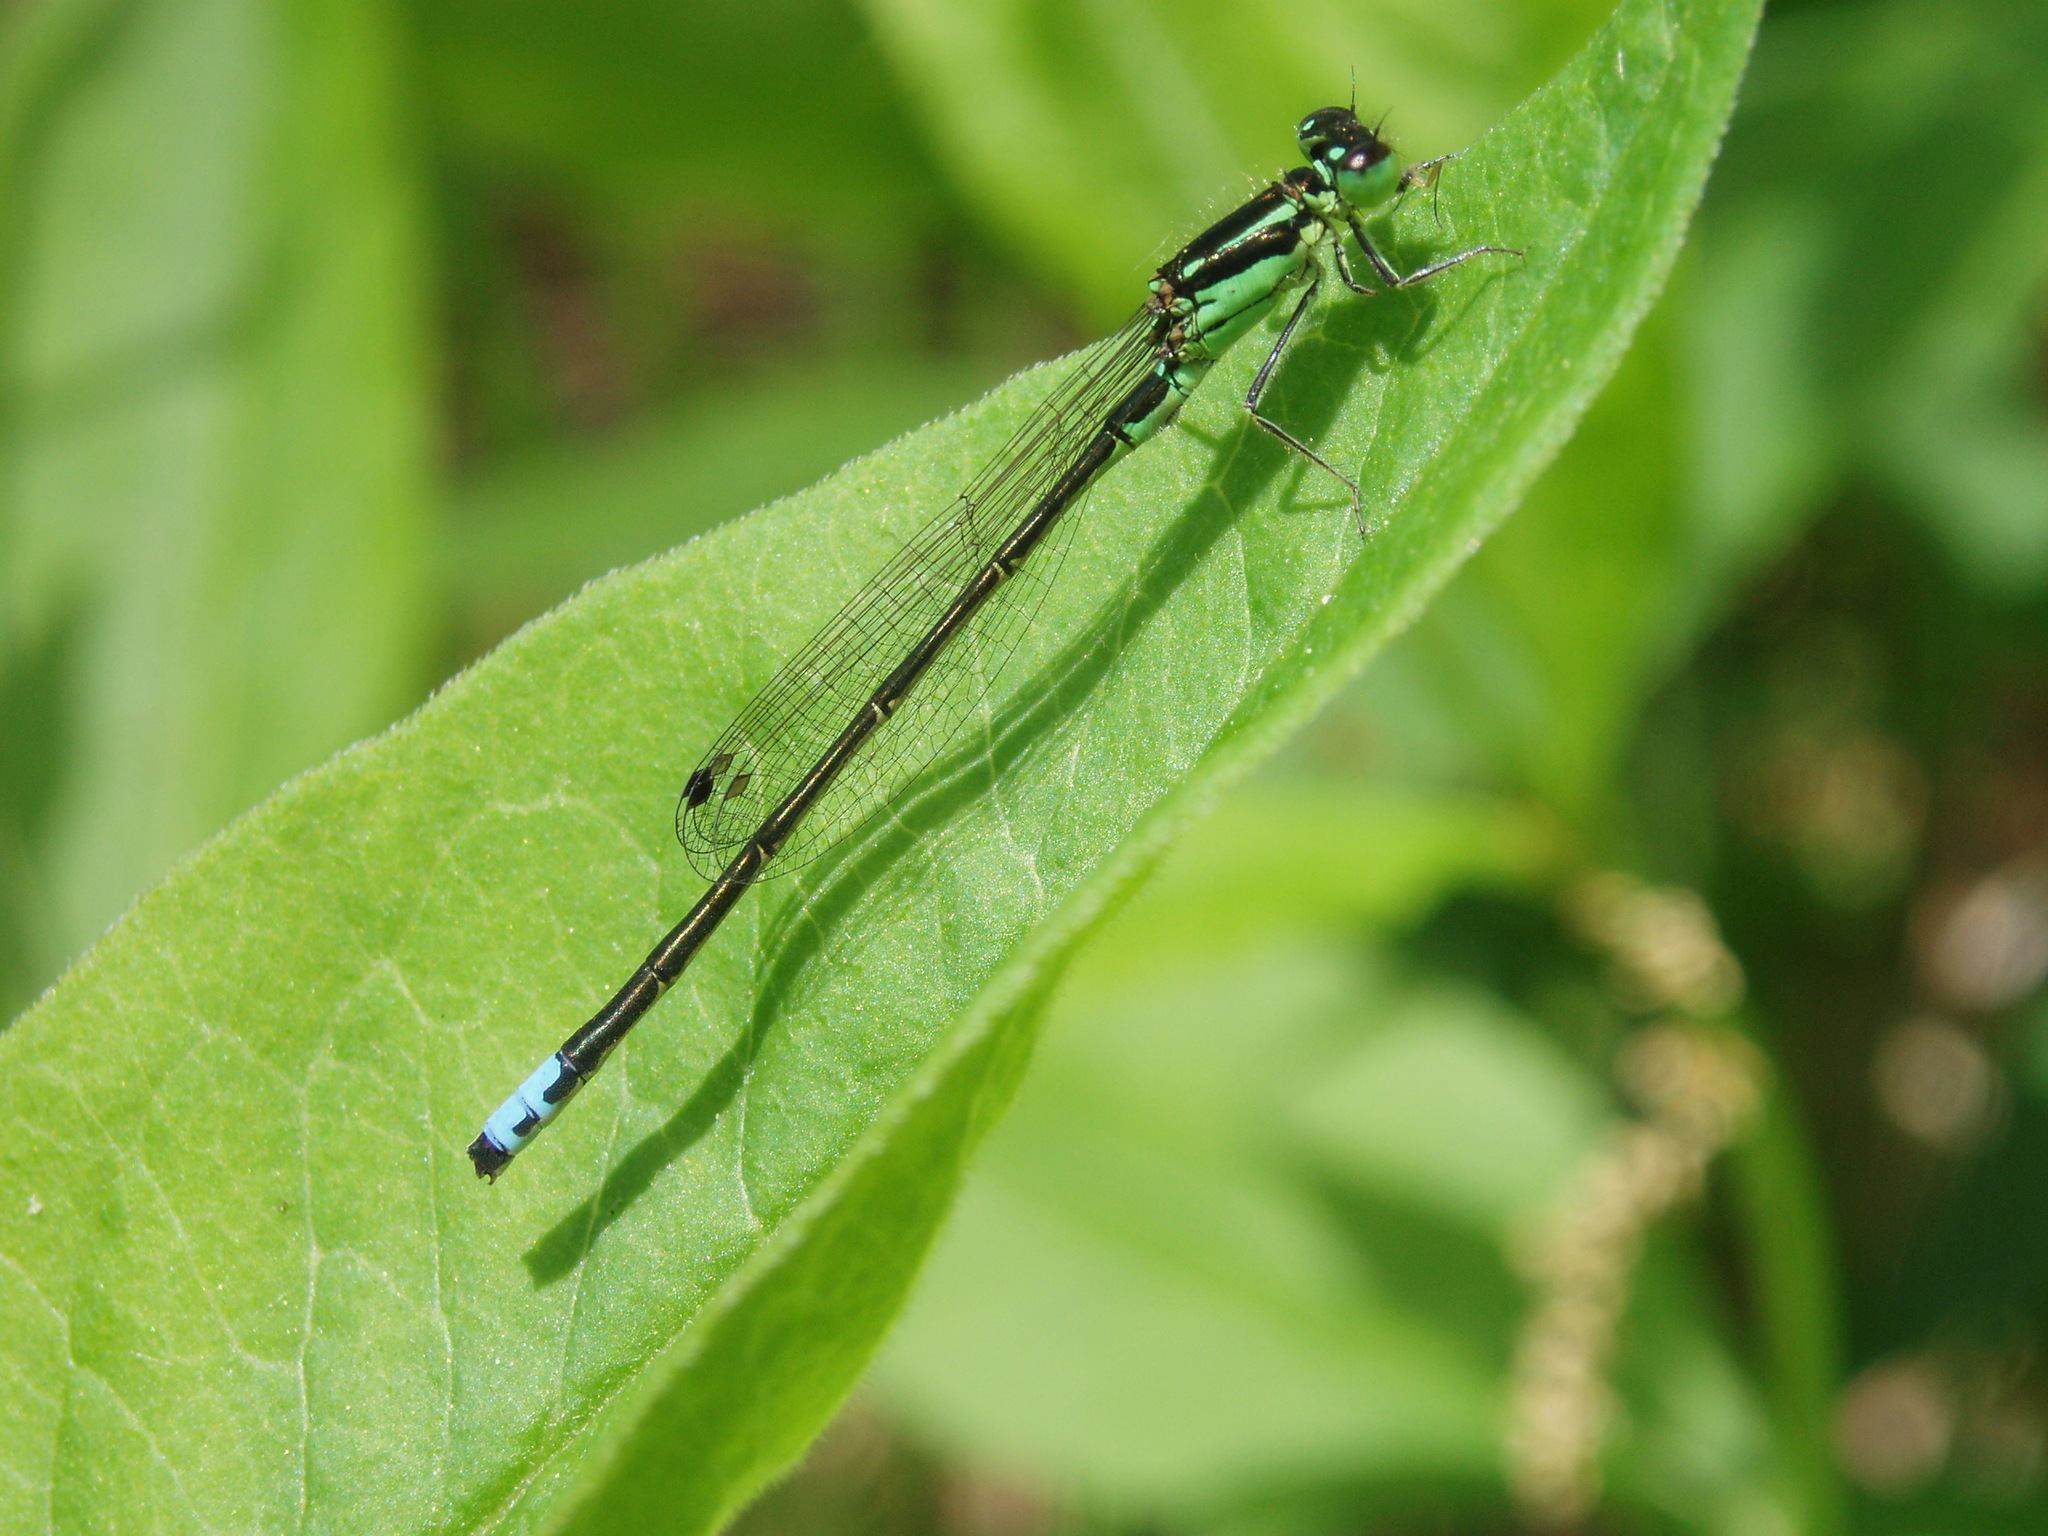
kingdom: Animalia
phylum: Arthropoda
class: Insecta
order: Odonata
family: Coenagrionidae
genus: Ischnura
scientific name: Ischnura verticalis
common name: Eastern forktail
